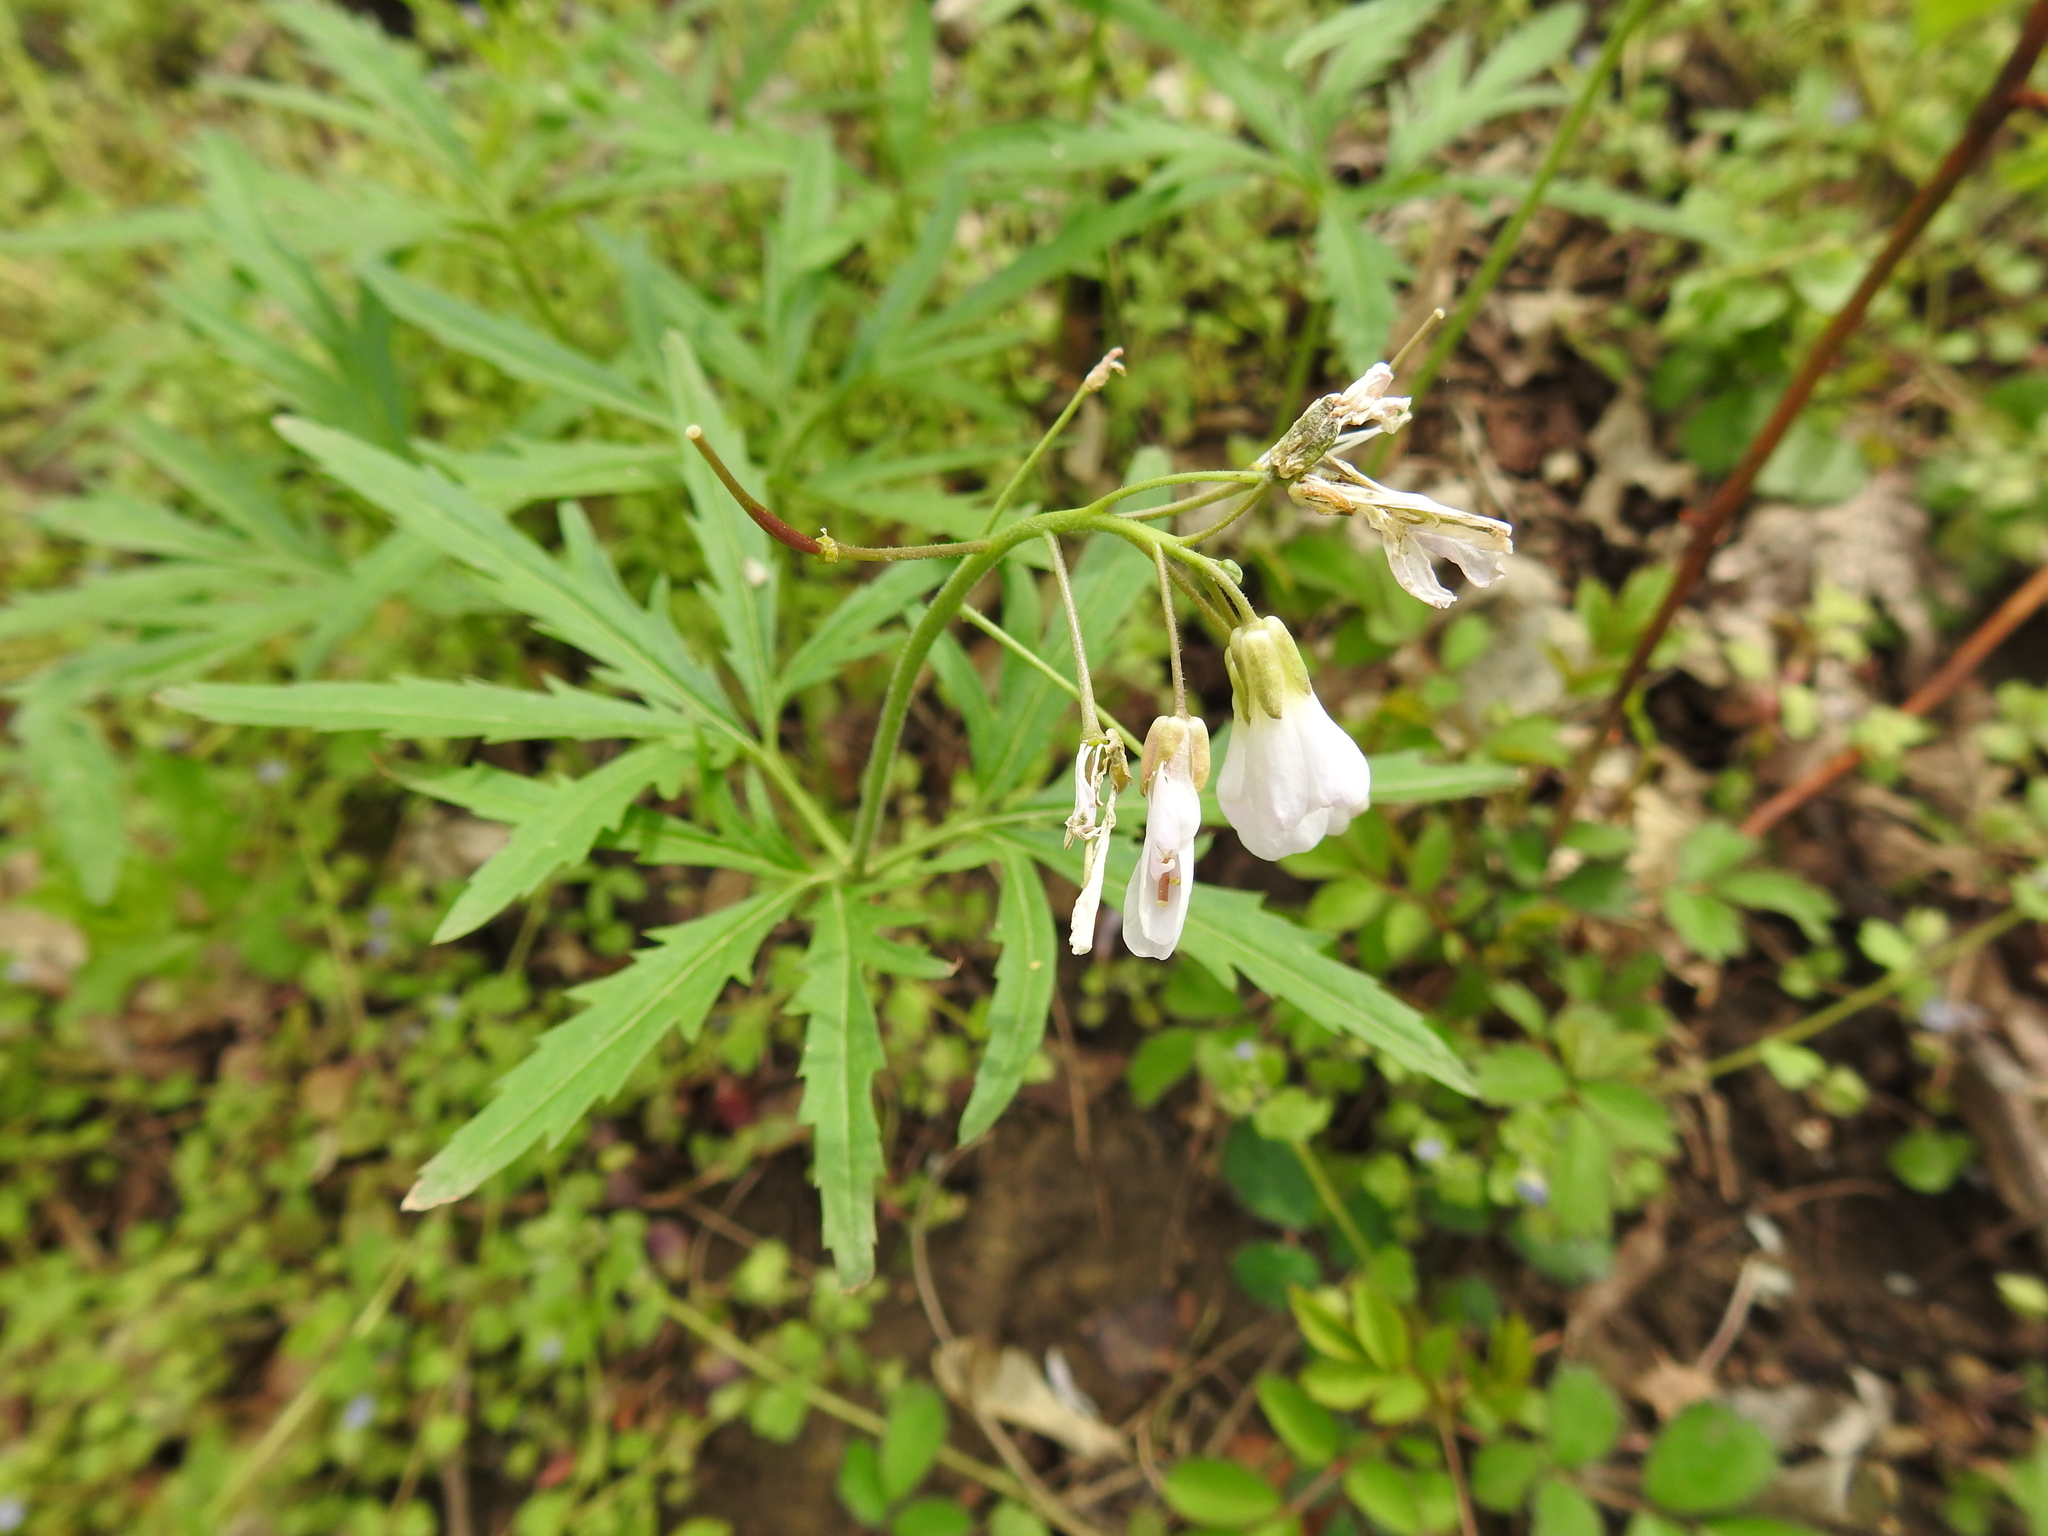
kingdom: Plantae
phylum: Tracheophyta
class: Magnoliopsida
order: Brassicales
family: Brassicaceae
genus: Cardamine
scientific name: Cardamine concatenata
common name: Cut-leaf toothcup
